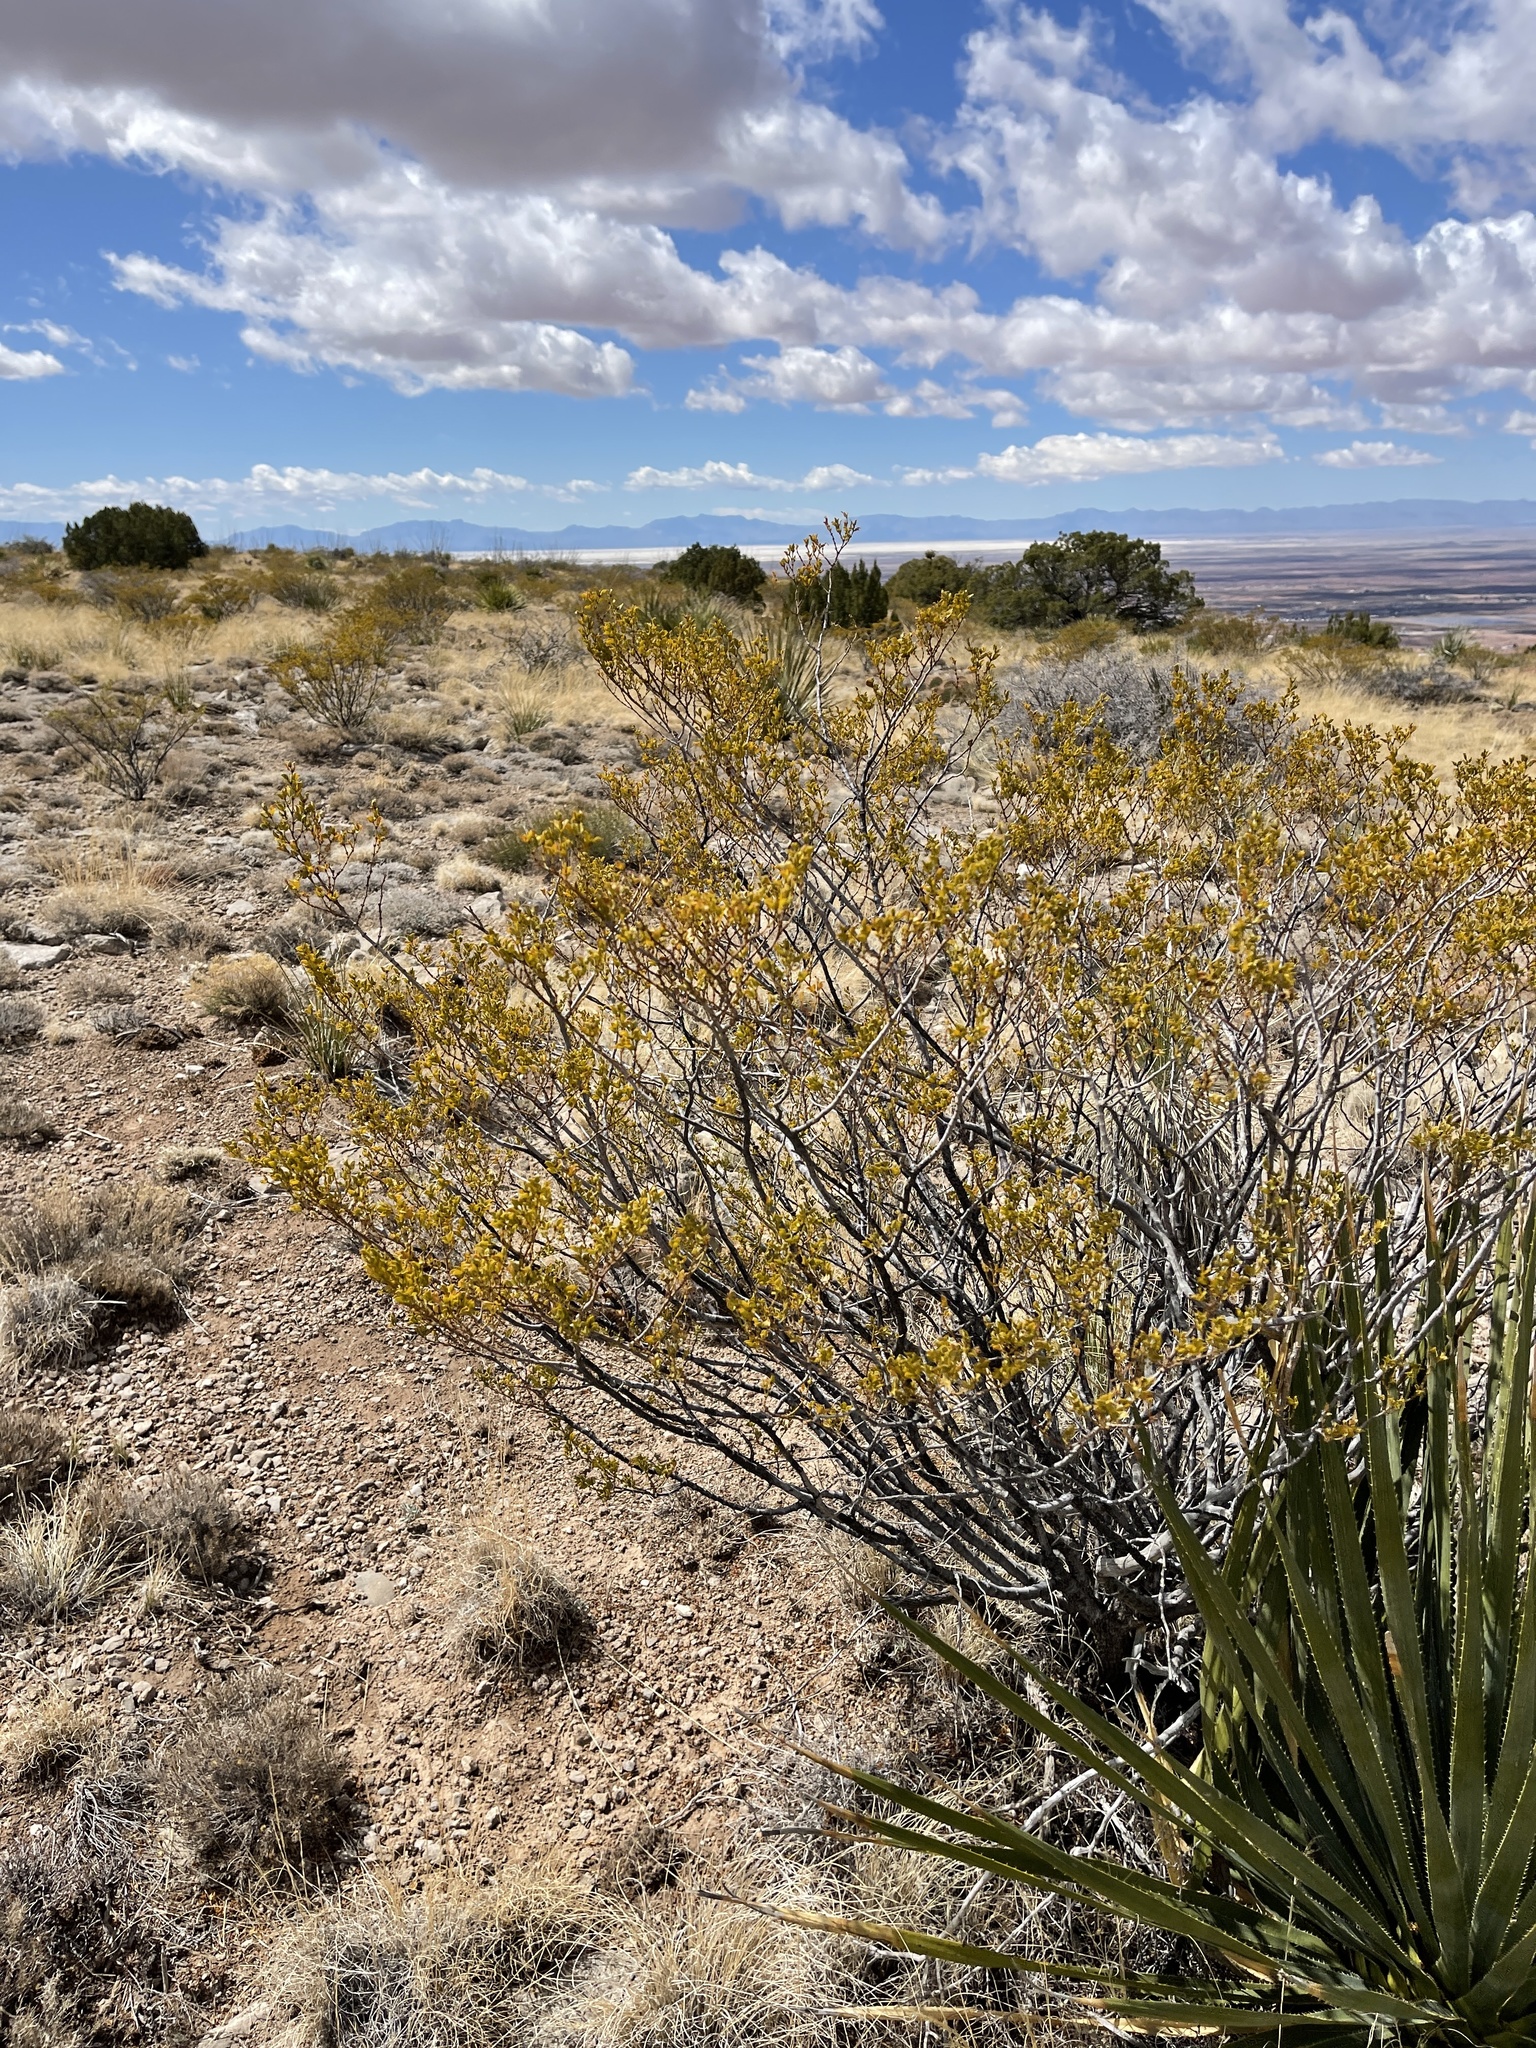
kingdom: Plantae
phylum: Tracheophyta
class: Magnoliopsida
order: Zygophyllales
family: Zygophyllaceae
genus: Larrea
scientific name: Larrea tridentata
